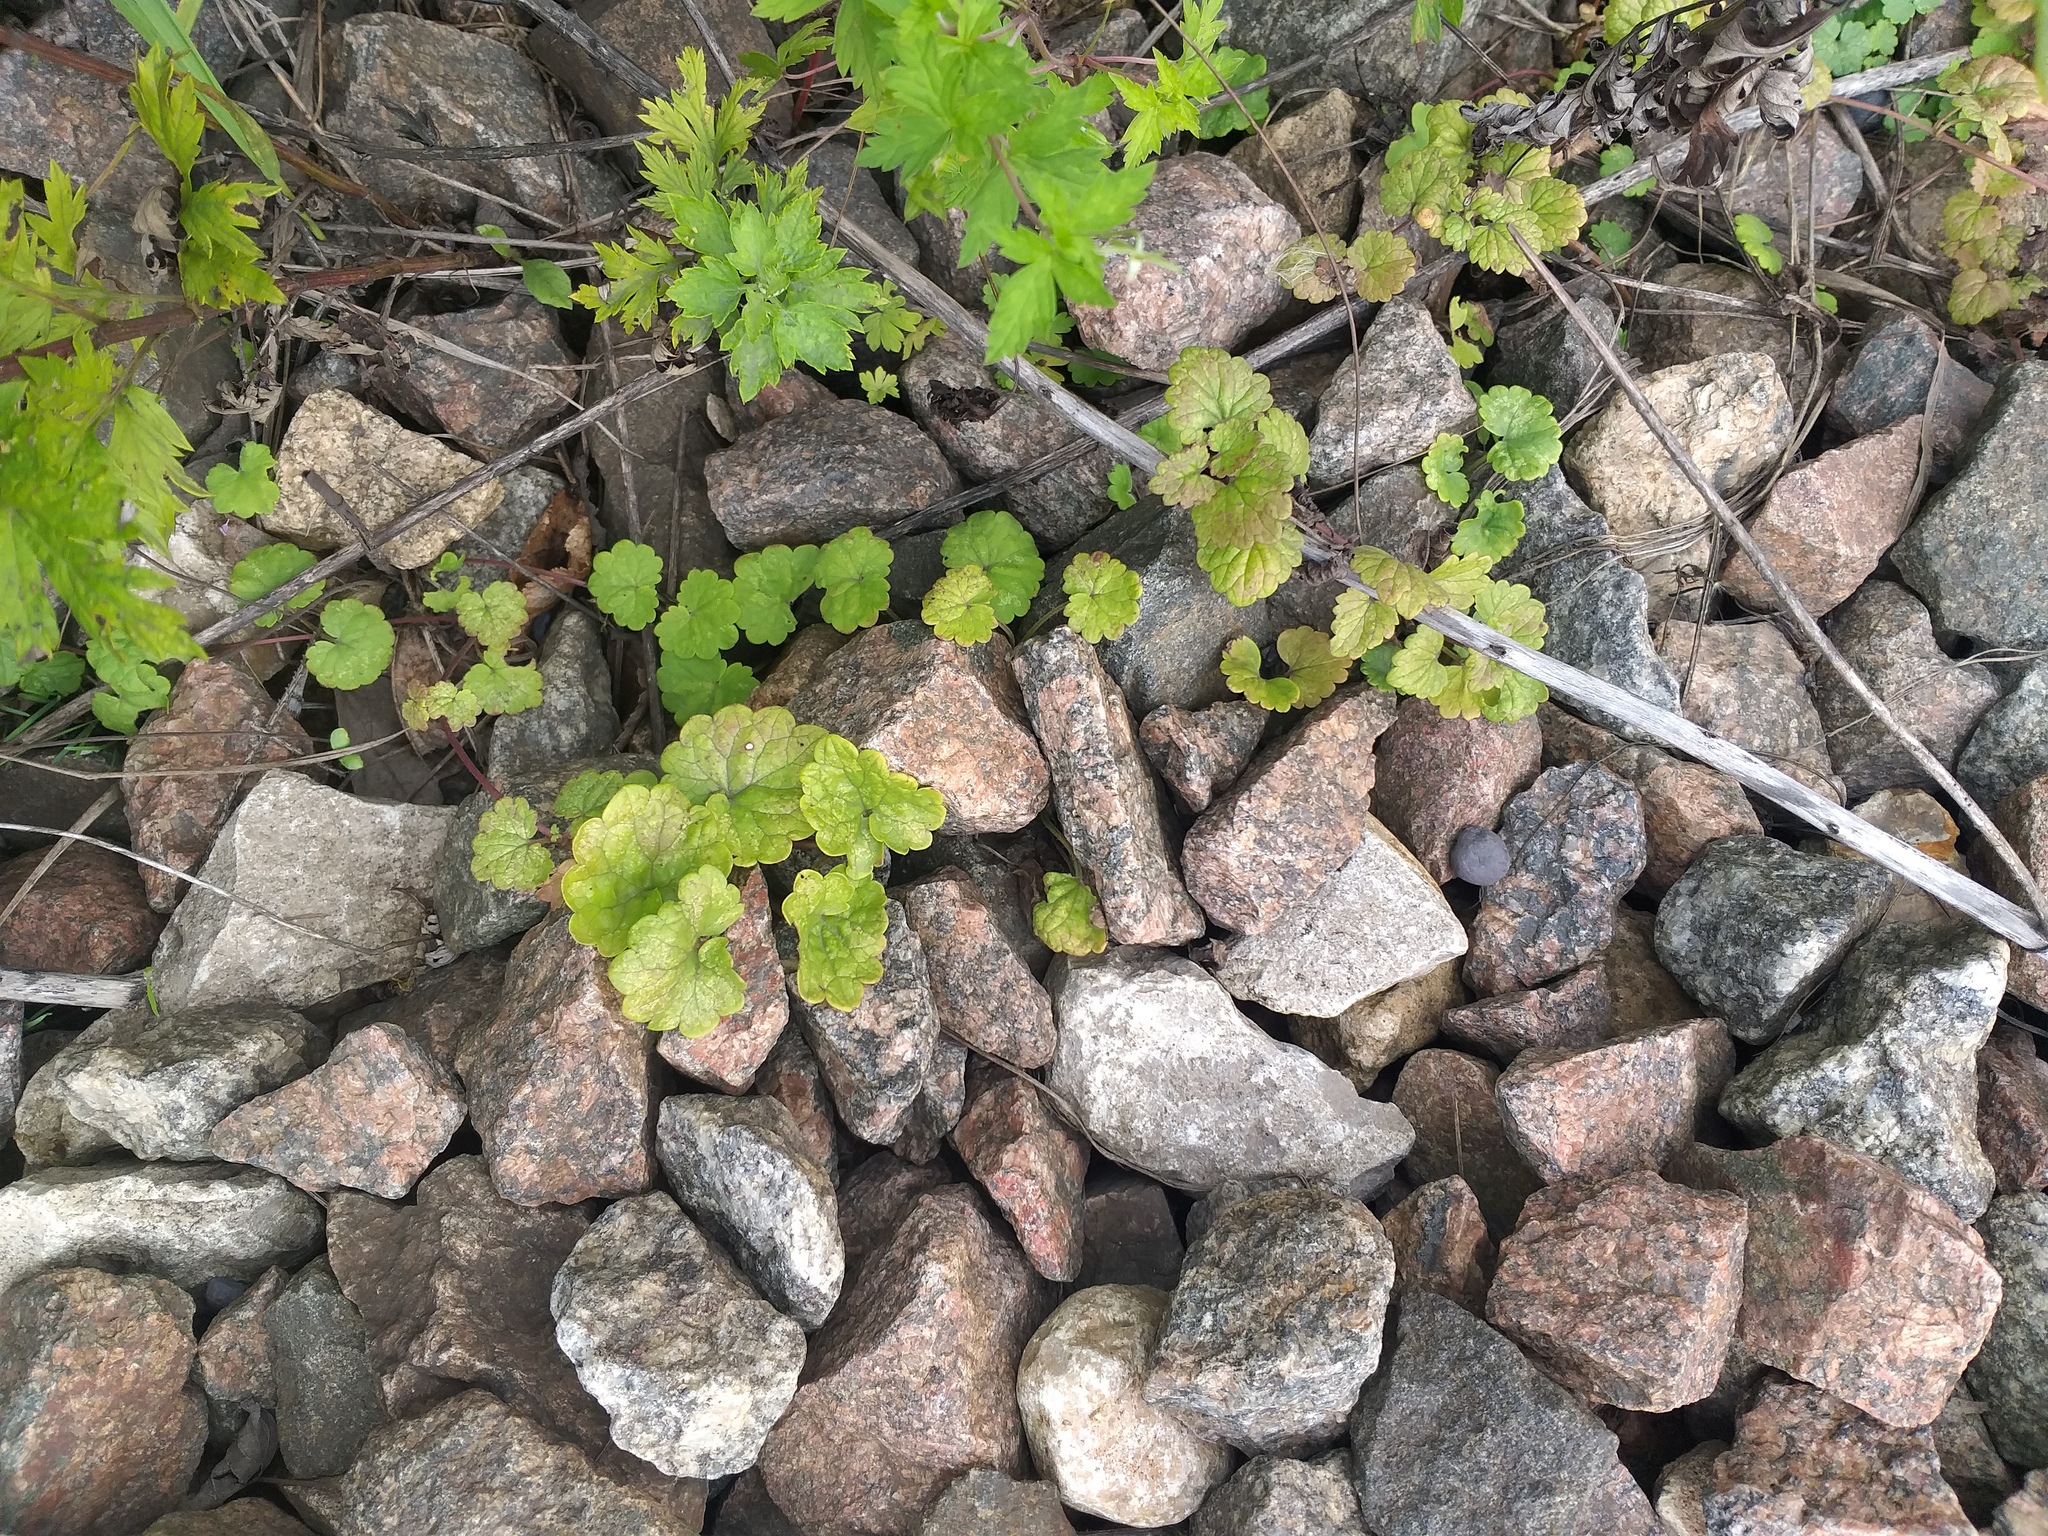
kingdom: Plantae
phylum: Tracheophyta
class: Magnoliopsida
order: Lamiales
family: Lamiaceae
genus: Glechoma
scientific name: Glechoma hederacea
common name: Ground ivy
